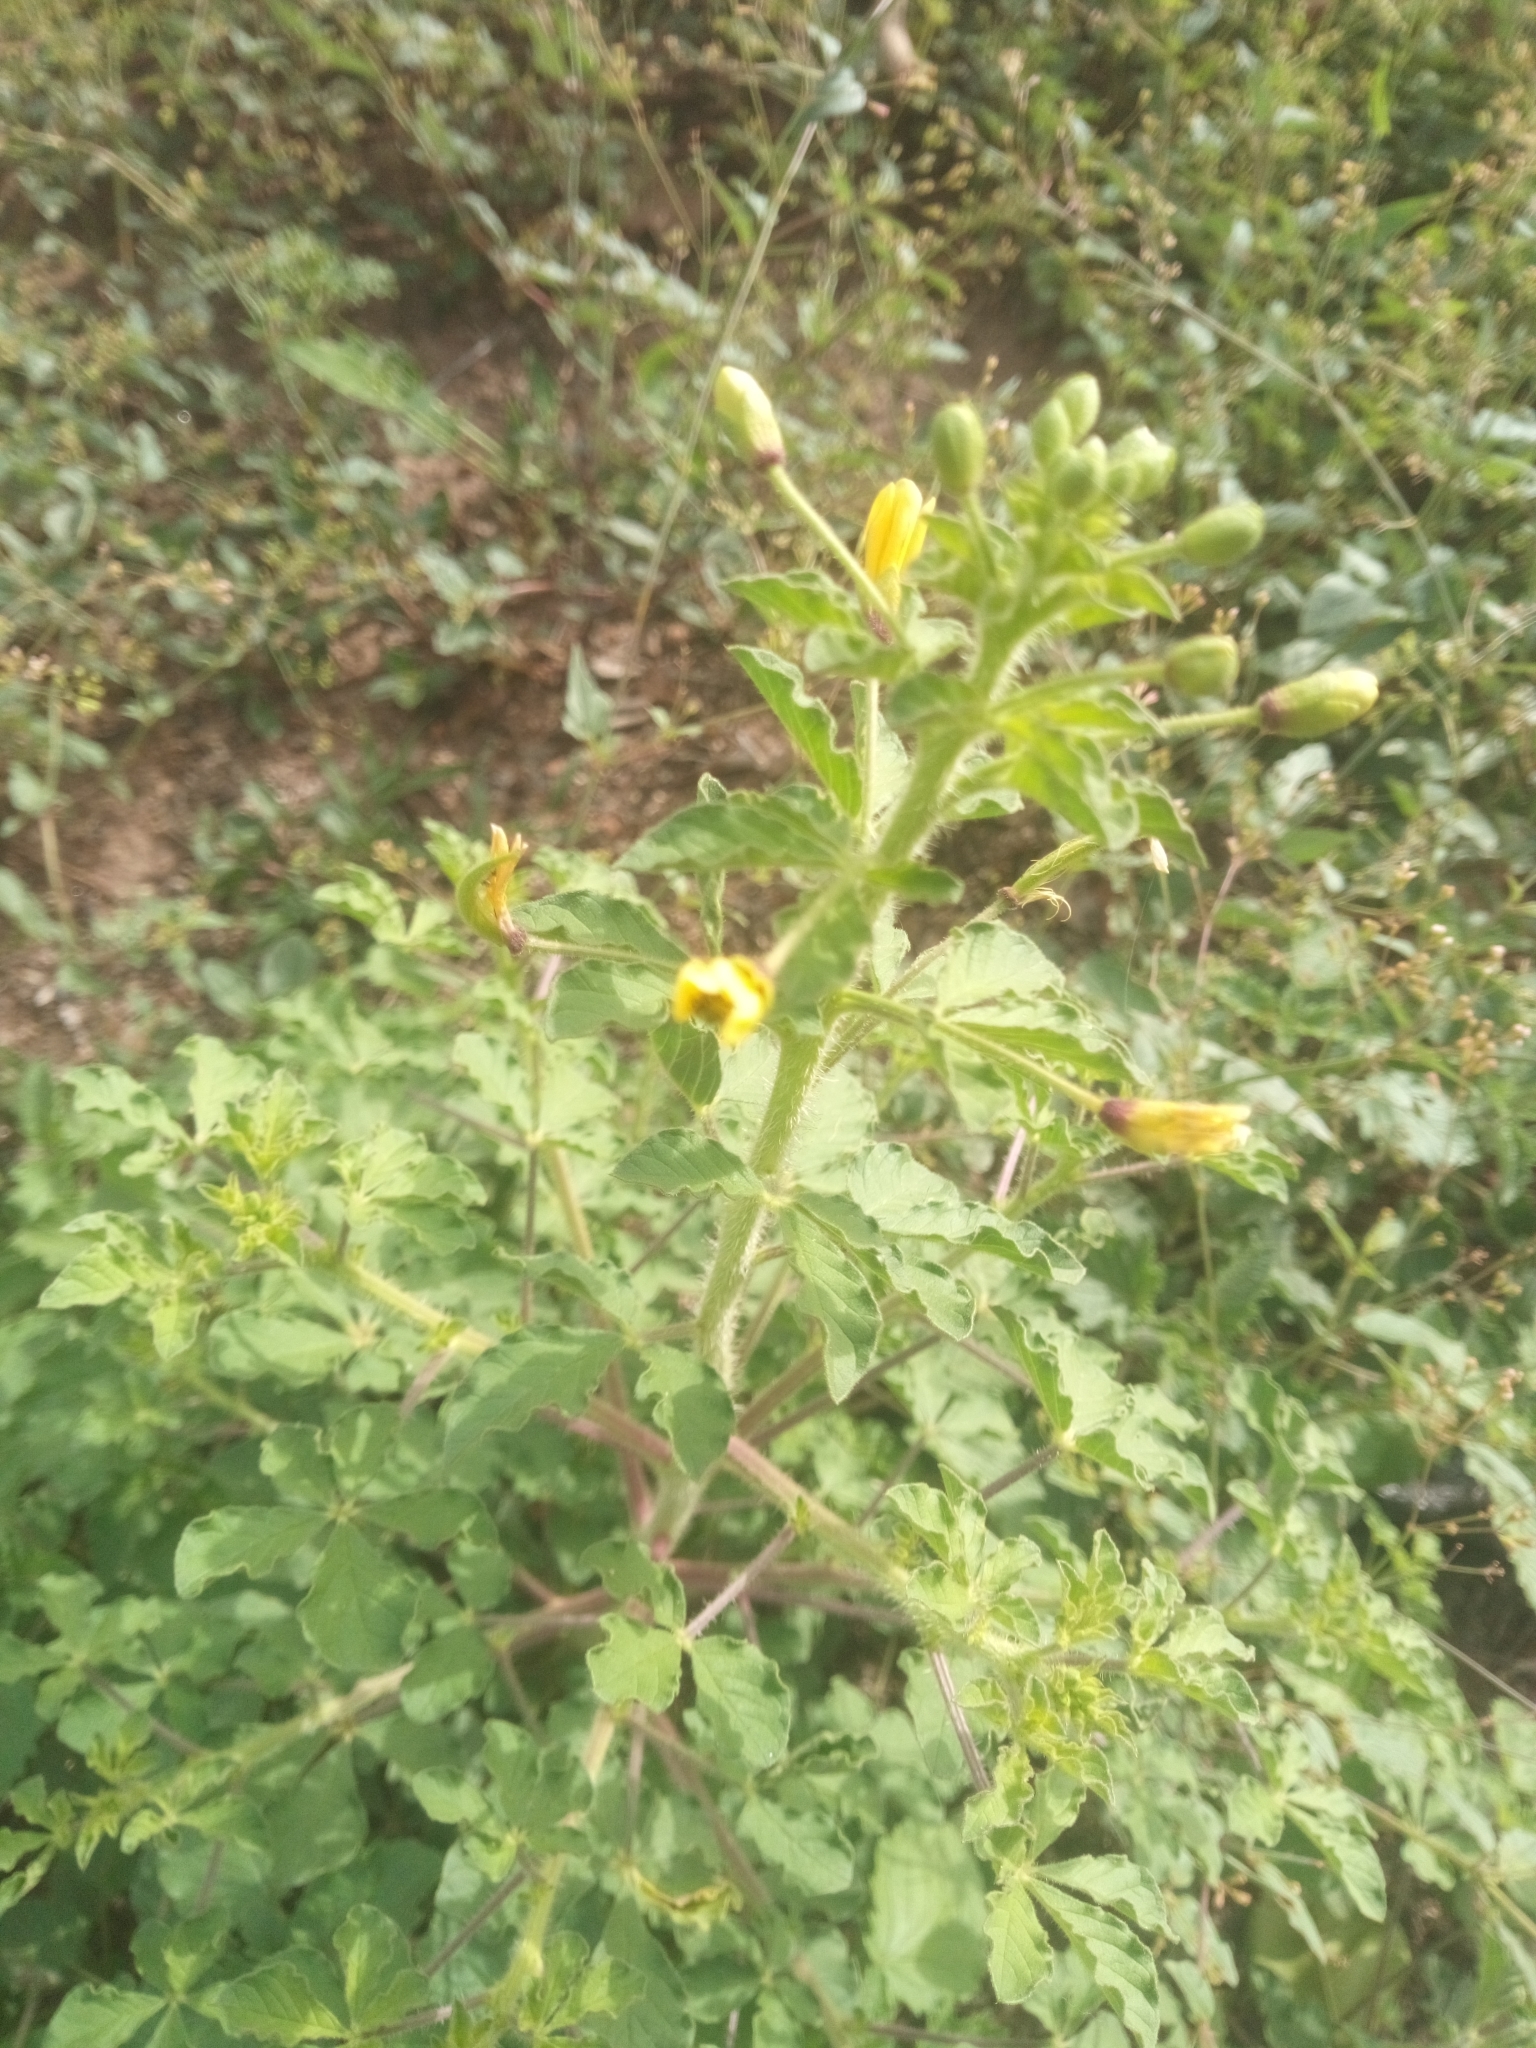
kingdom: Plantae
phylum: Tracheophyta
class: Magnoliopsida
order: Brassicales
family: Cleomaceae
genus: Arivela
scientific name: Arivela viscosa
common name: Asian spiderflower
